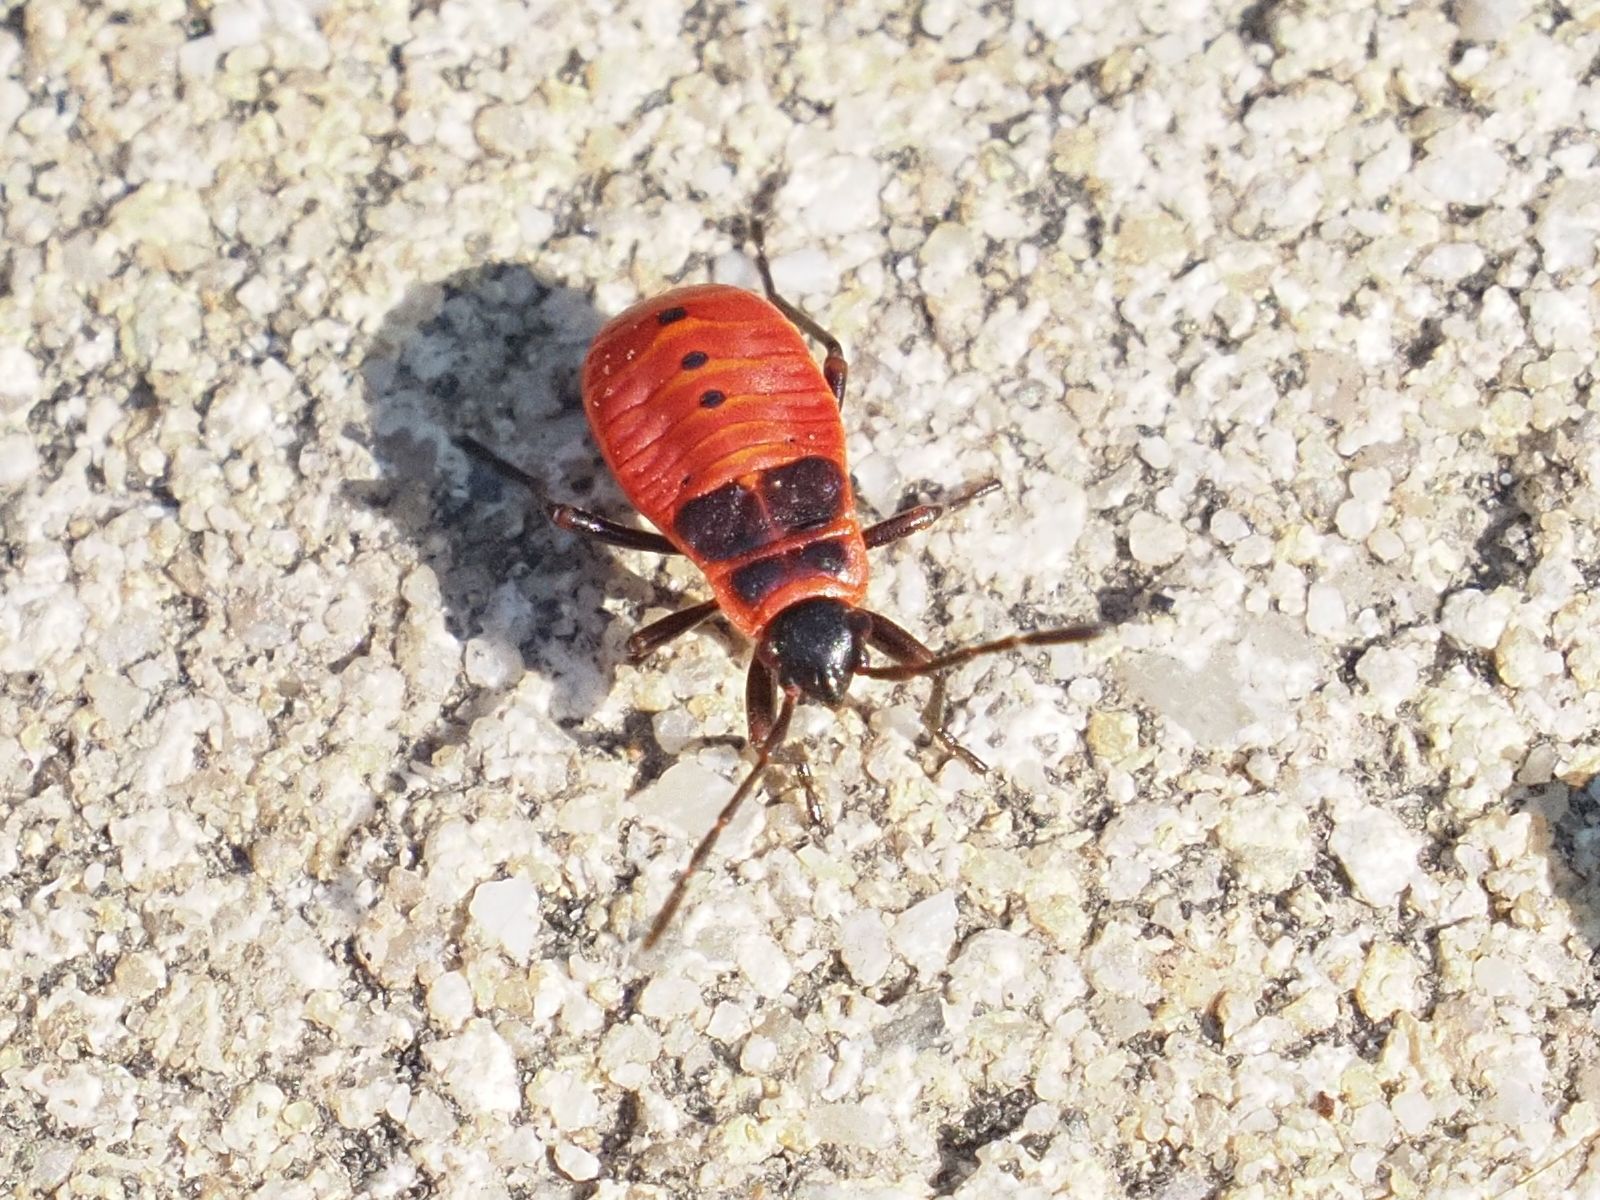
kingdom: Animalia
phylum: Arthropoda
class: Insecta
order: Hemiptera
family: Pyrrhocoridae
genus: Pyrrhocoris
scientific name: Pyrrhocoris apterus
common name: Firebug
